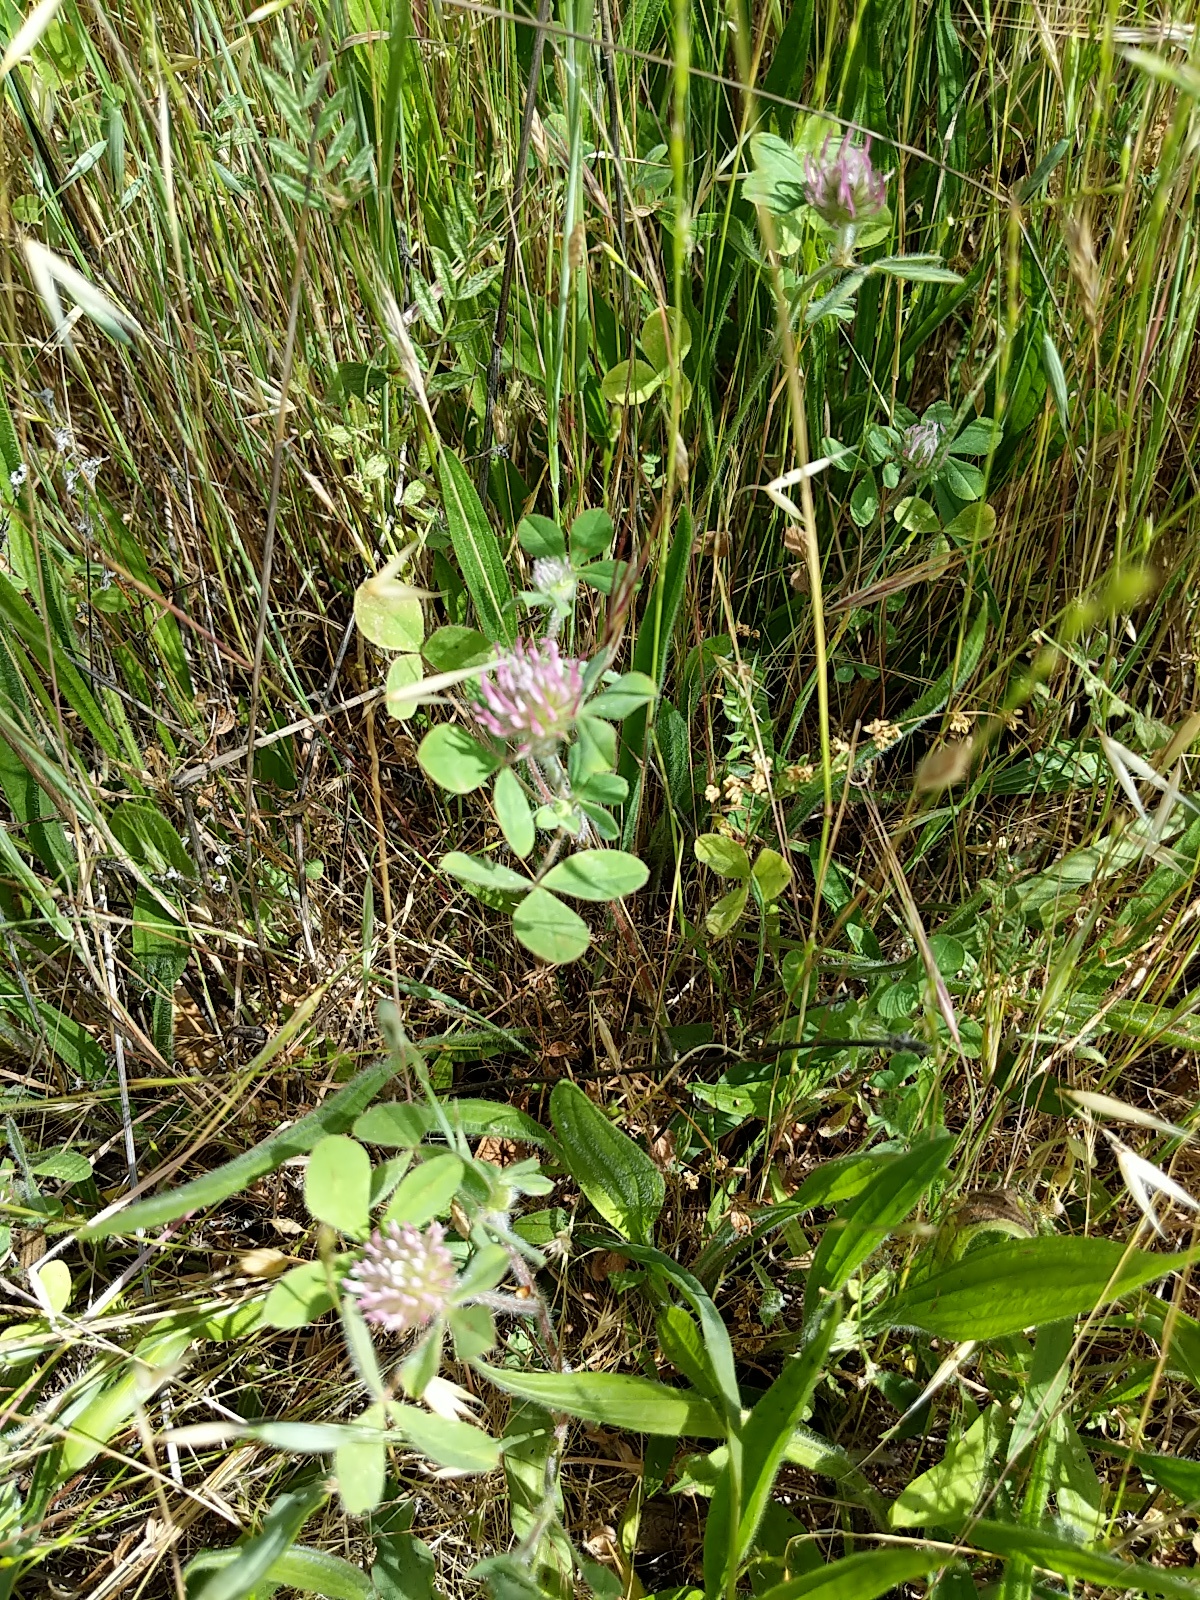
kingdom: Plantae
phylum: Tracheophyta
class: Magnoliopsida
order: Fabales
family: Fabaceae
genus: Trifolium
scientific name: Trifolium hirtum
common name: Rose clover
